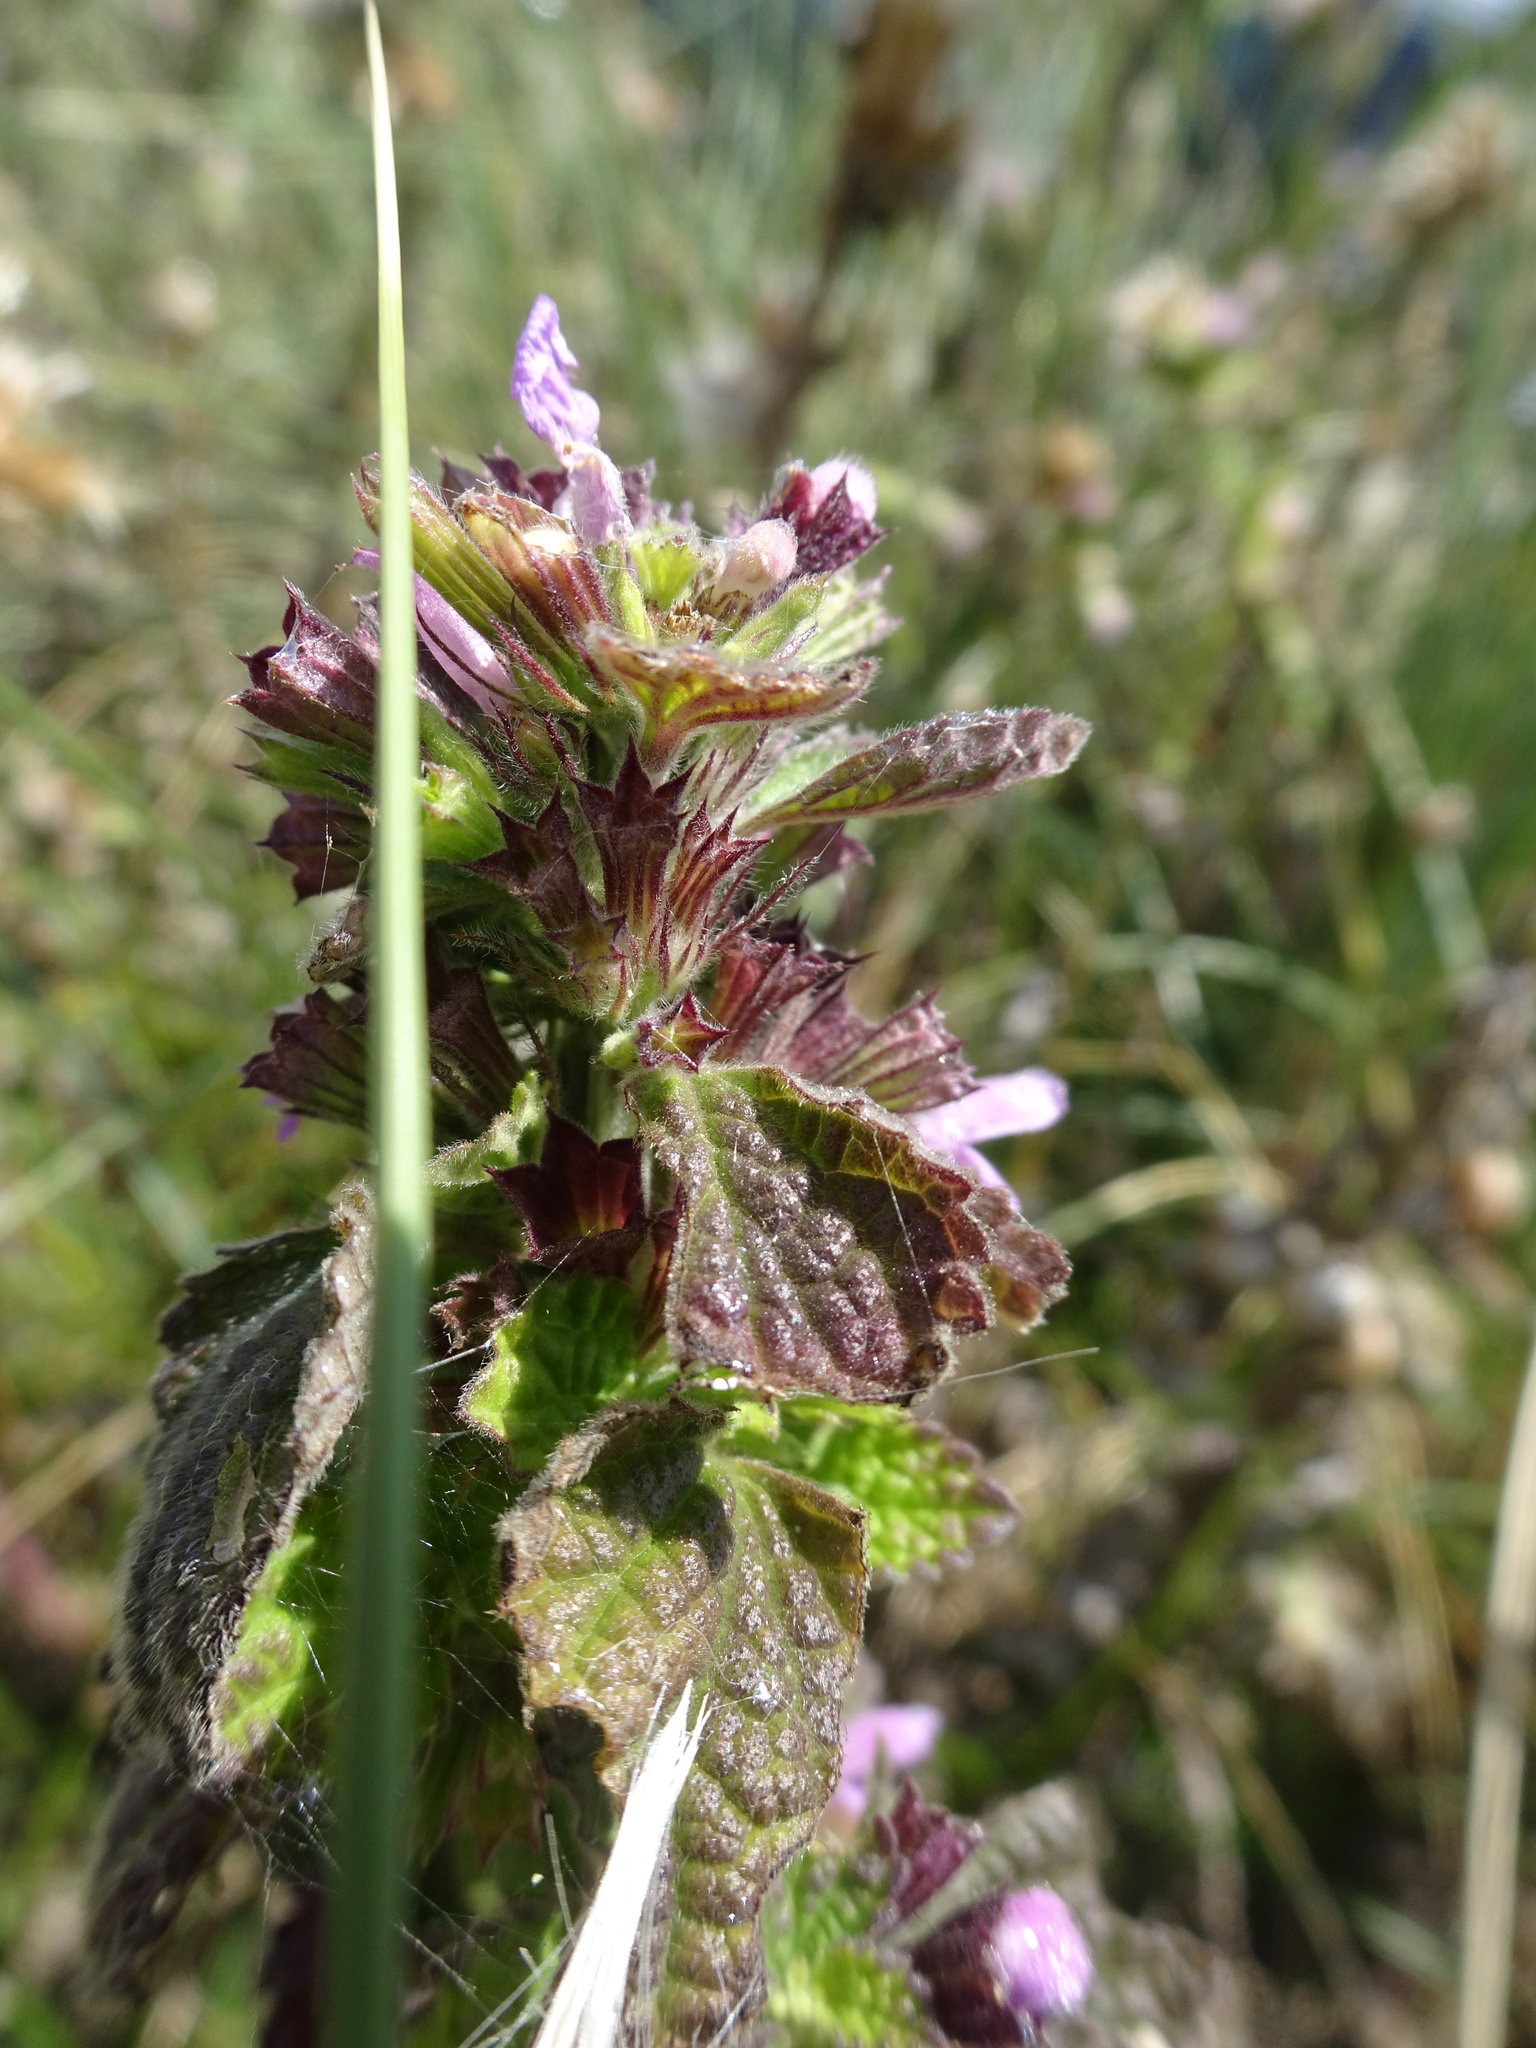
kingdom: Plantae
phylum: Tracheophyta
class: Magnoliopsida
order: Lamiales
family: Lamiaceae
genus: Ballota
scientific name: Ballota nigra
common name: Black horehound
